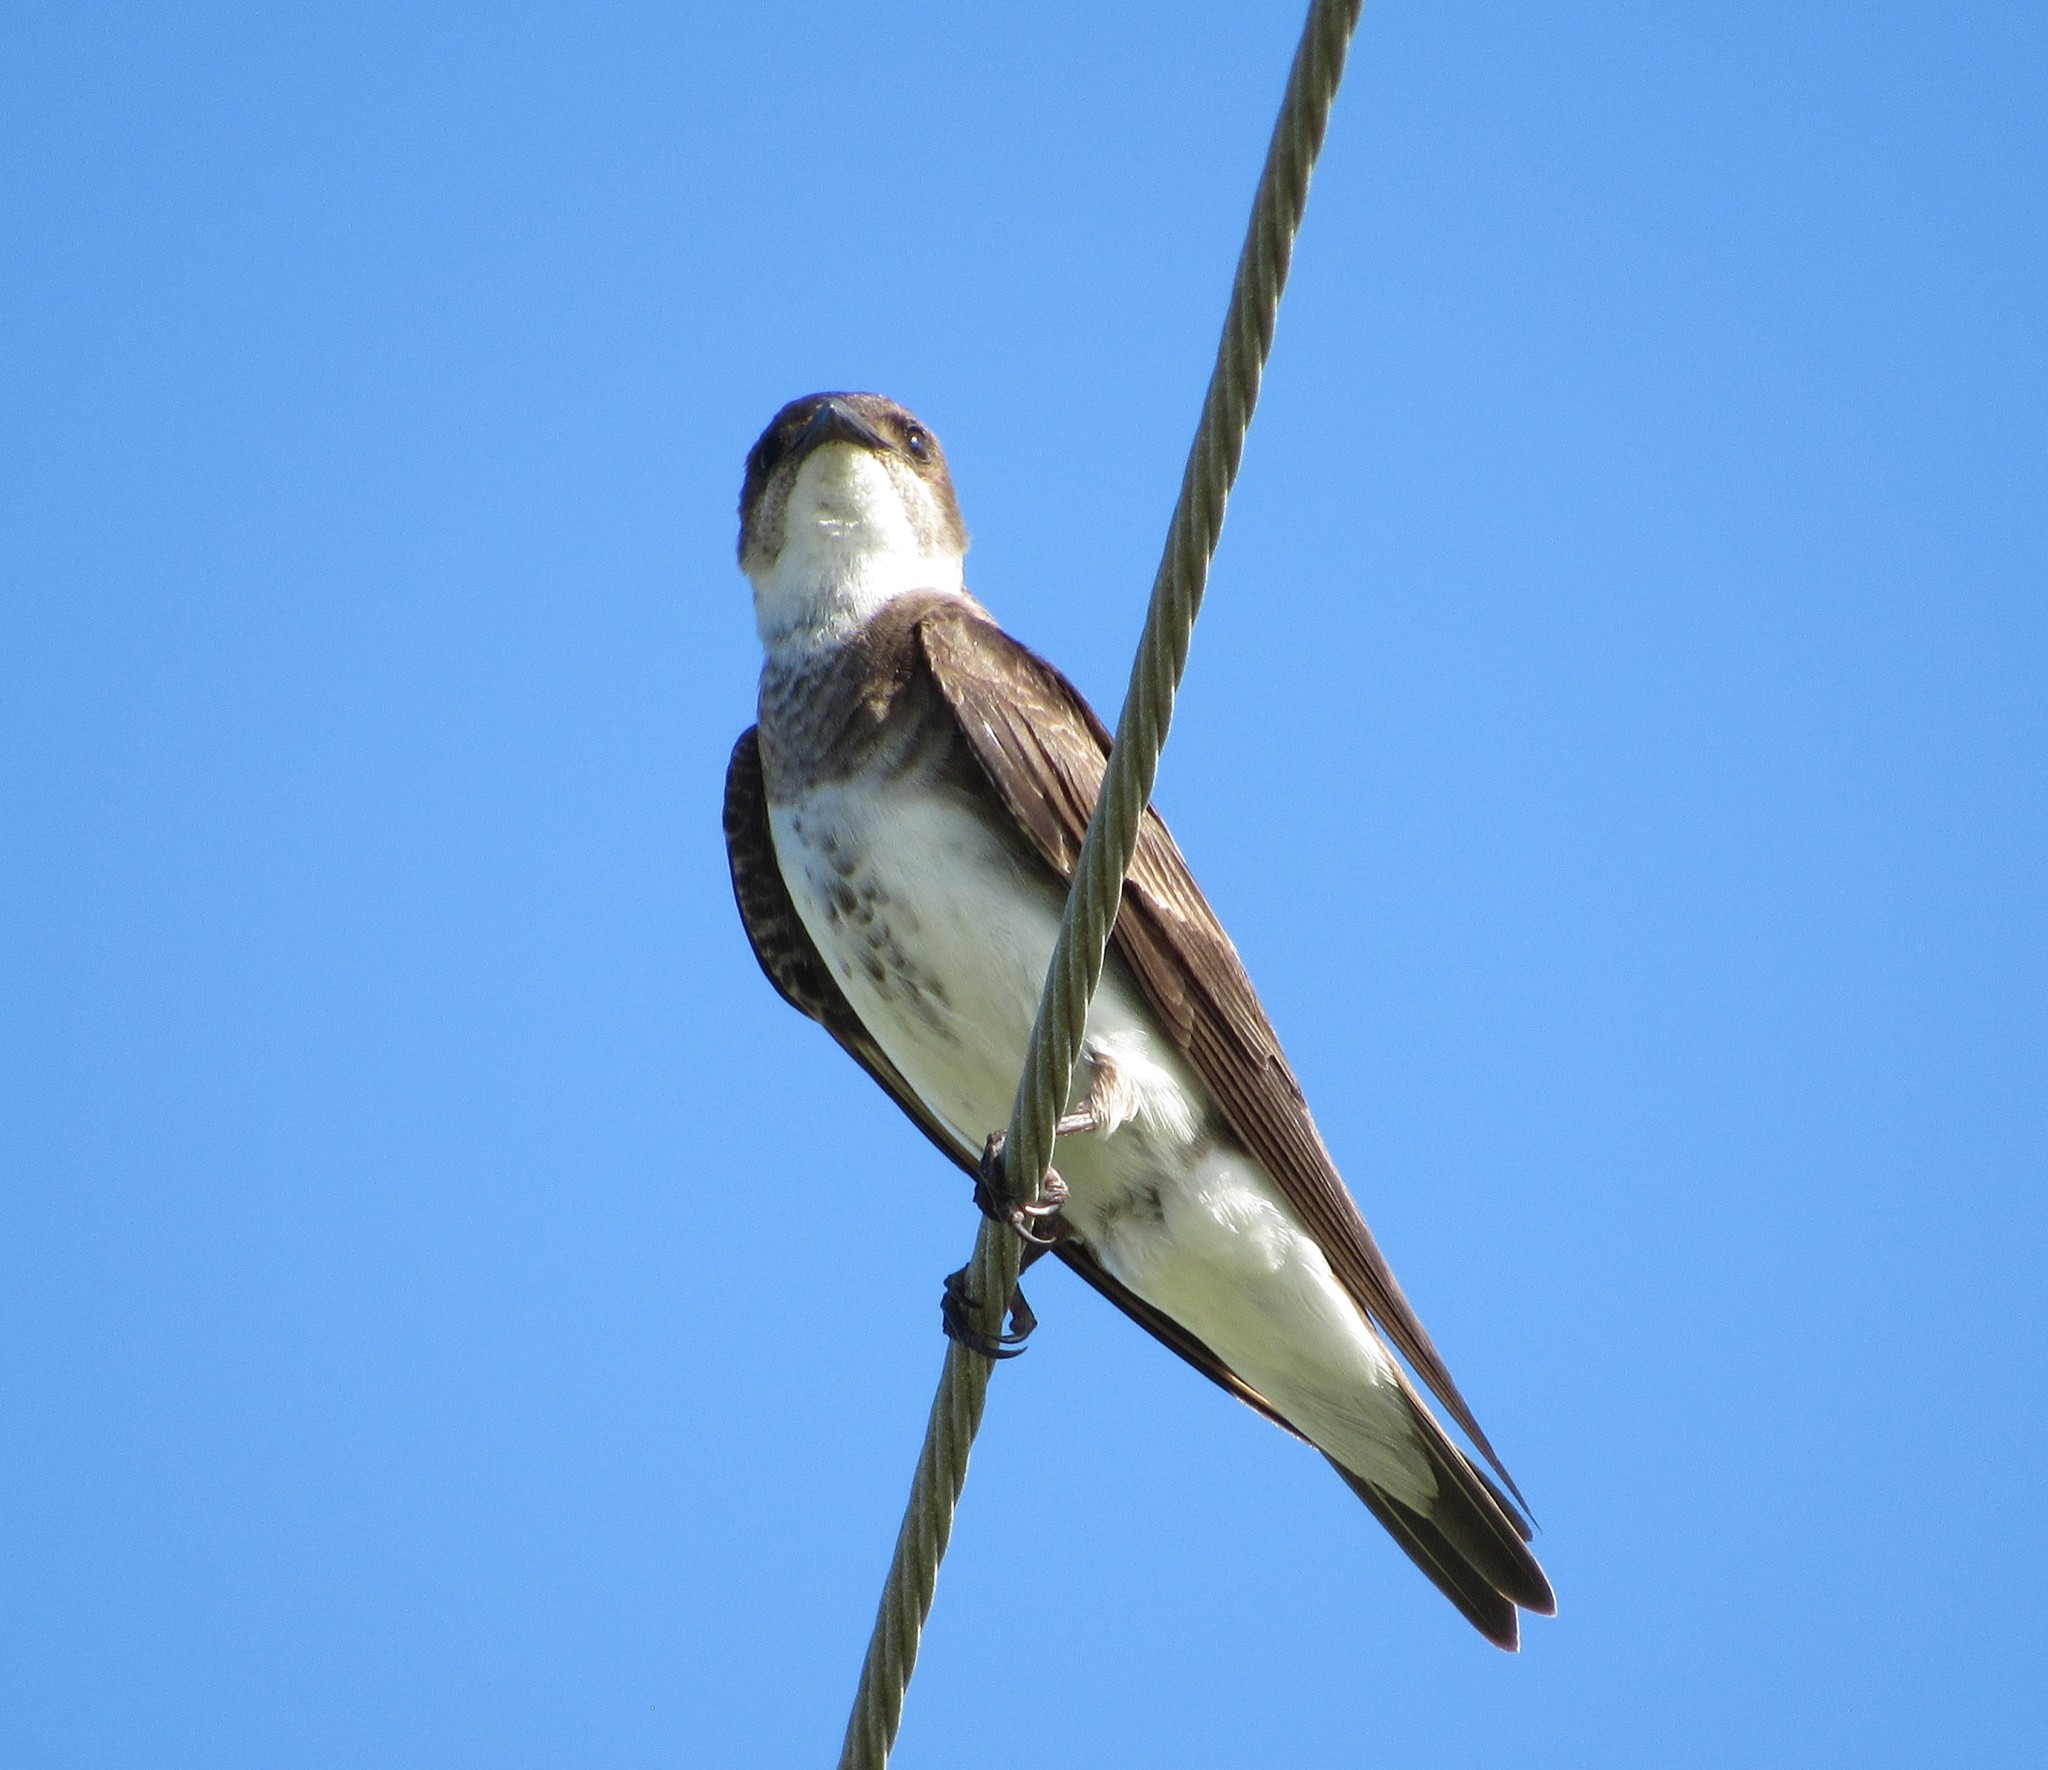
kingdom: Animalia
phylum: Chordata
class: Aves
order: Passeriformes
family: Hirundinidae
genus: Progne
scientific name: Progne tapera
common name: Brown-chested martin
